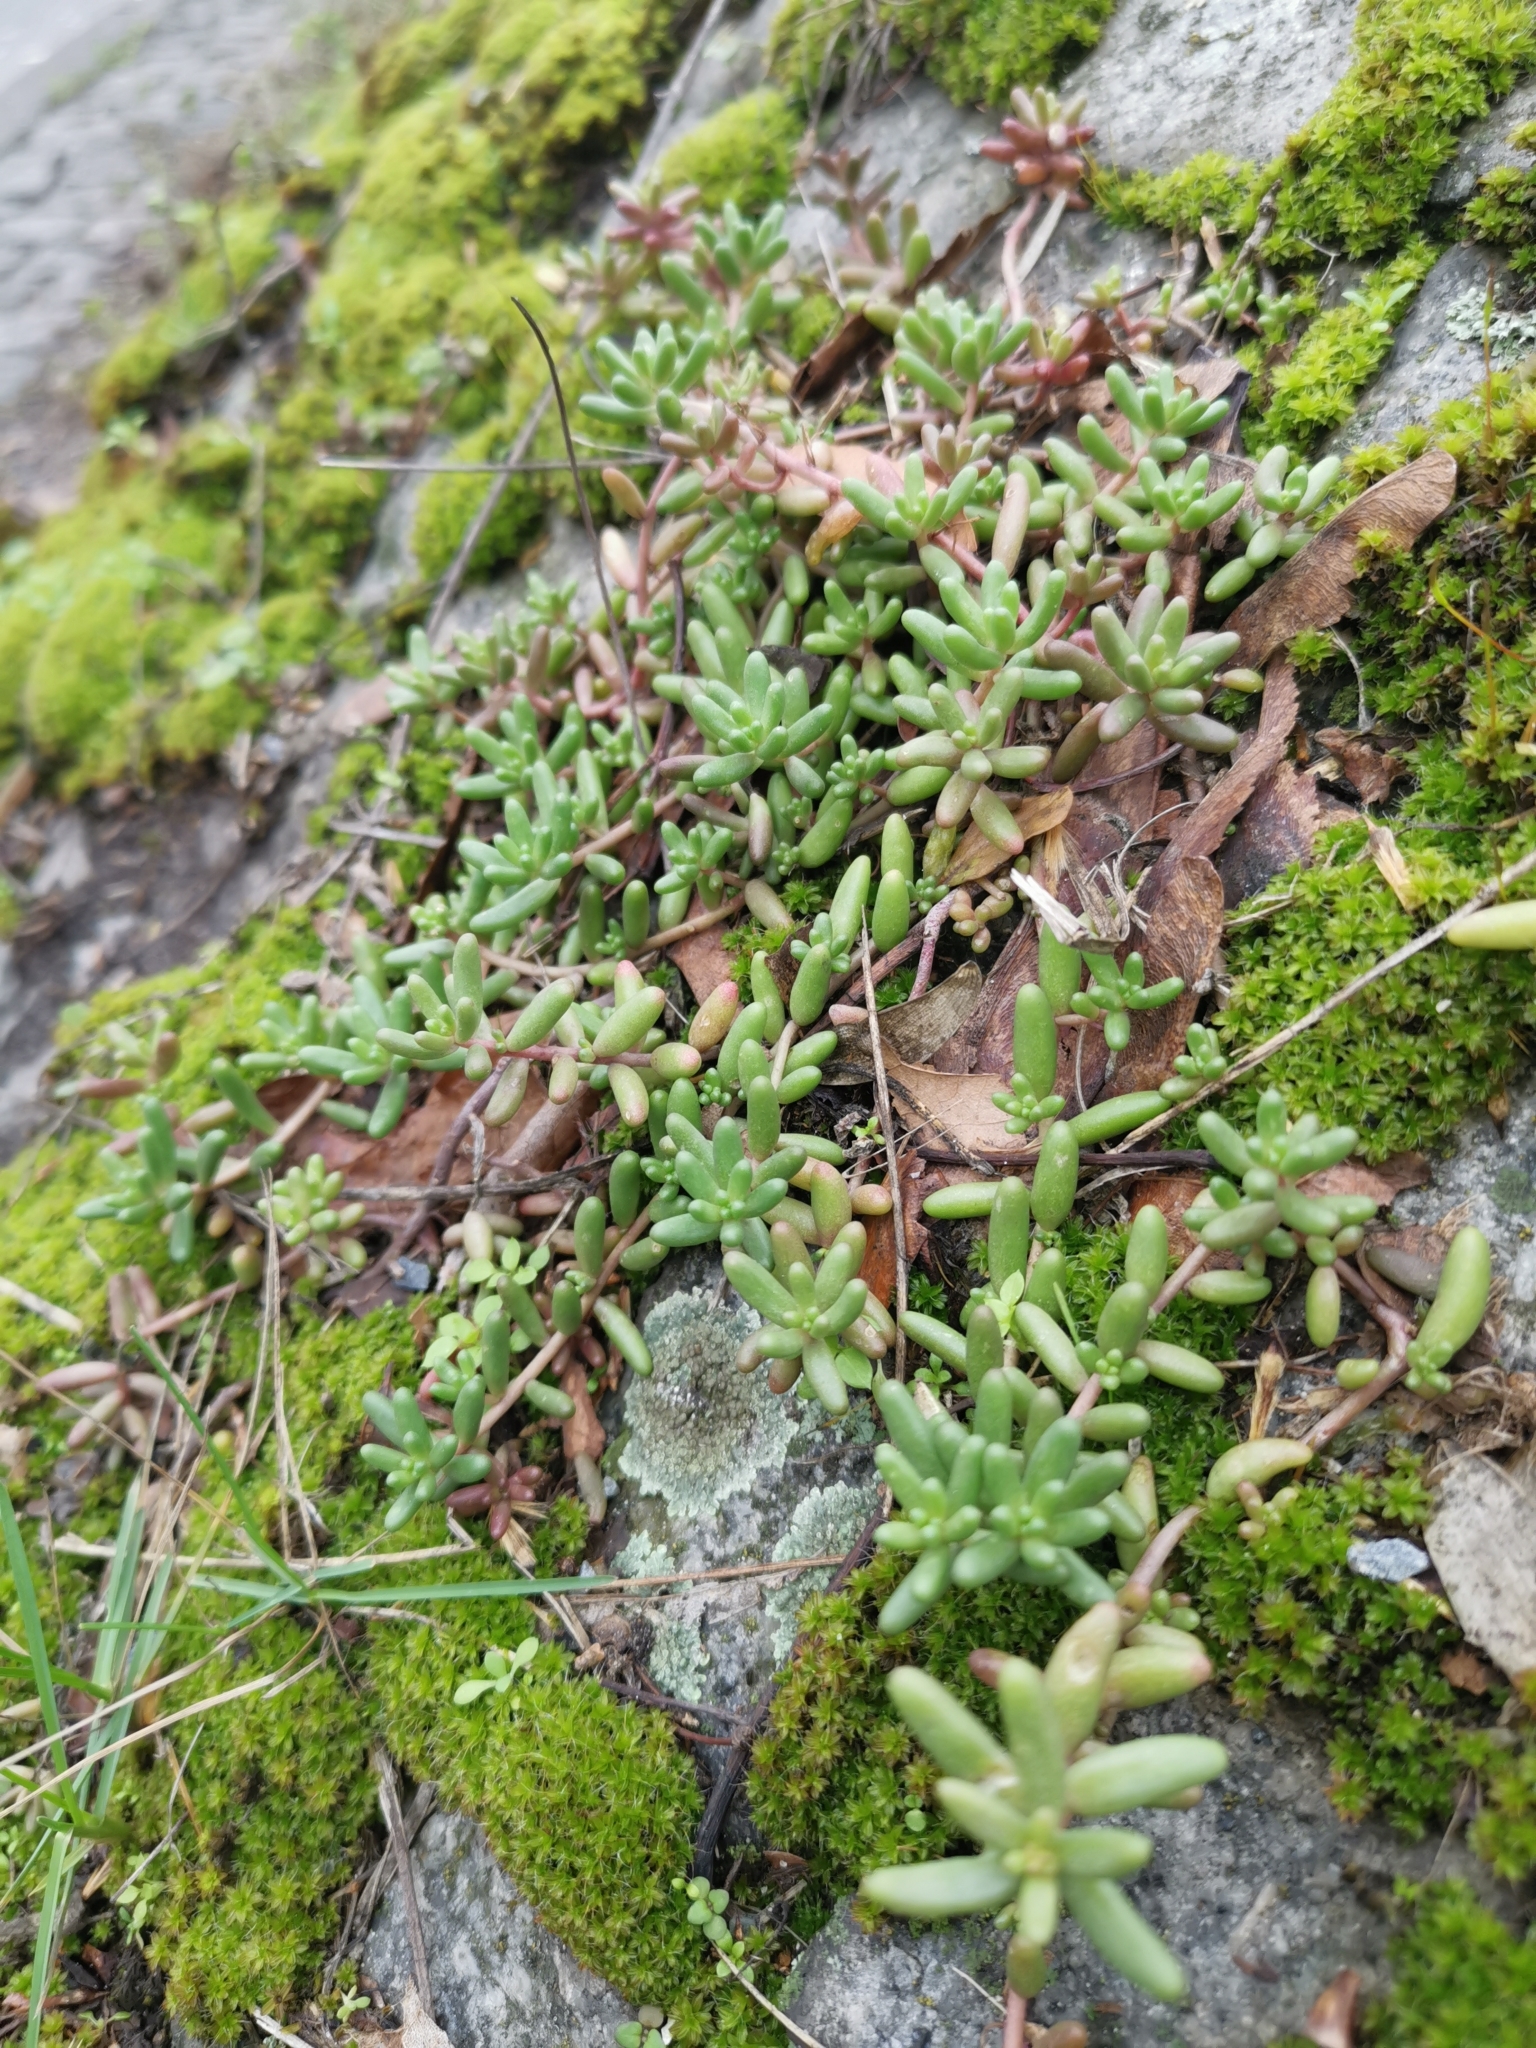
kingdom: Plantae
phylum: Tracheophyta
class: Magnoliopsida
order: Saxifragales
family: Crassulaceae
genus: Sedum
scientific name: Sedum album
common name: White stonecrop
